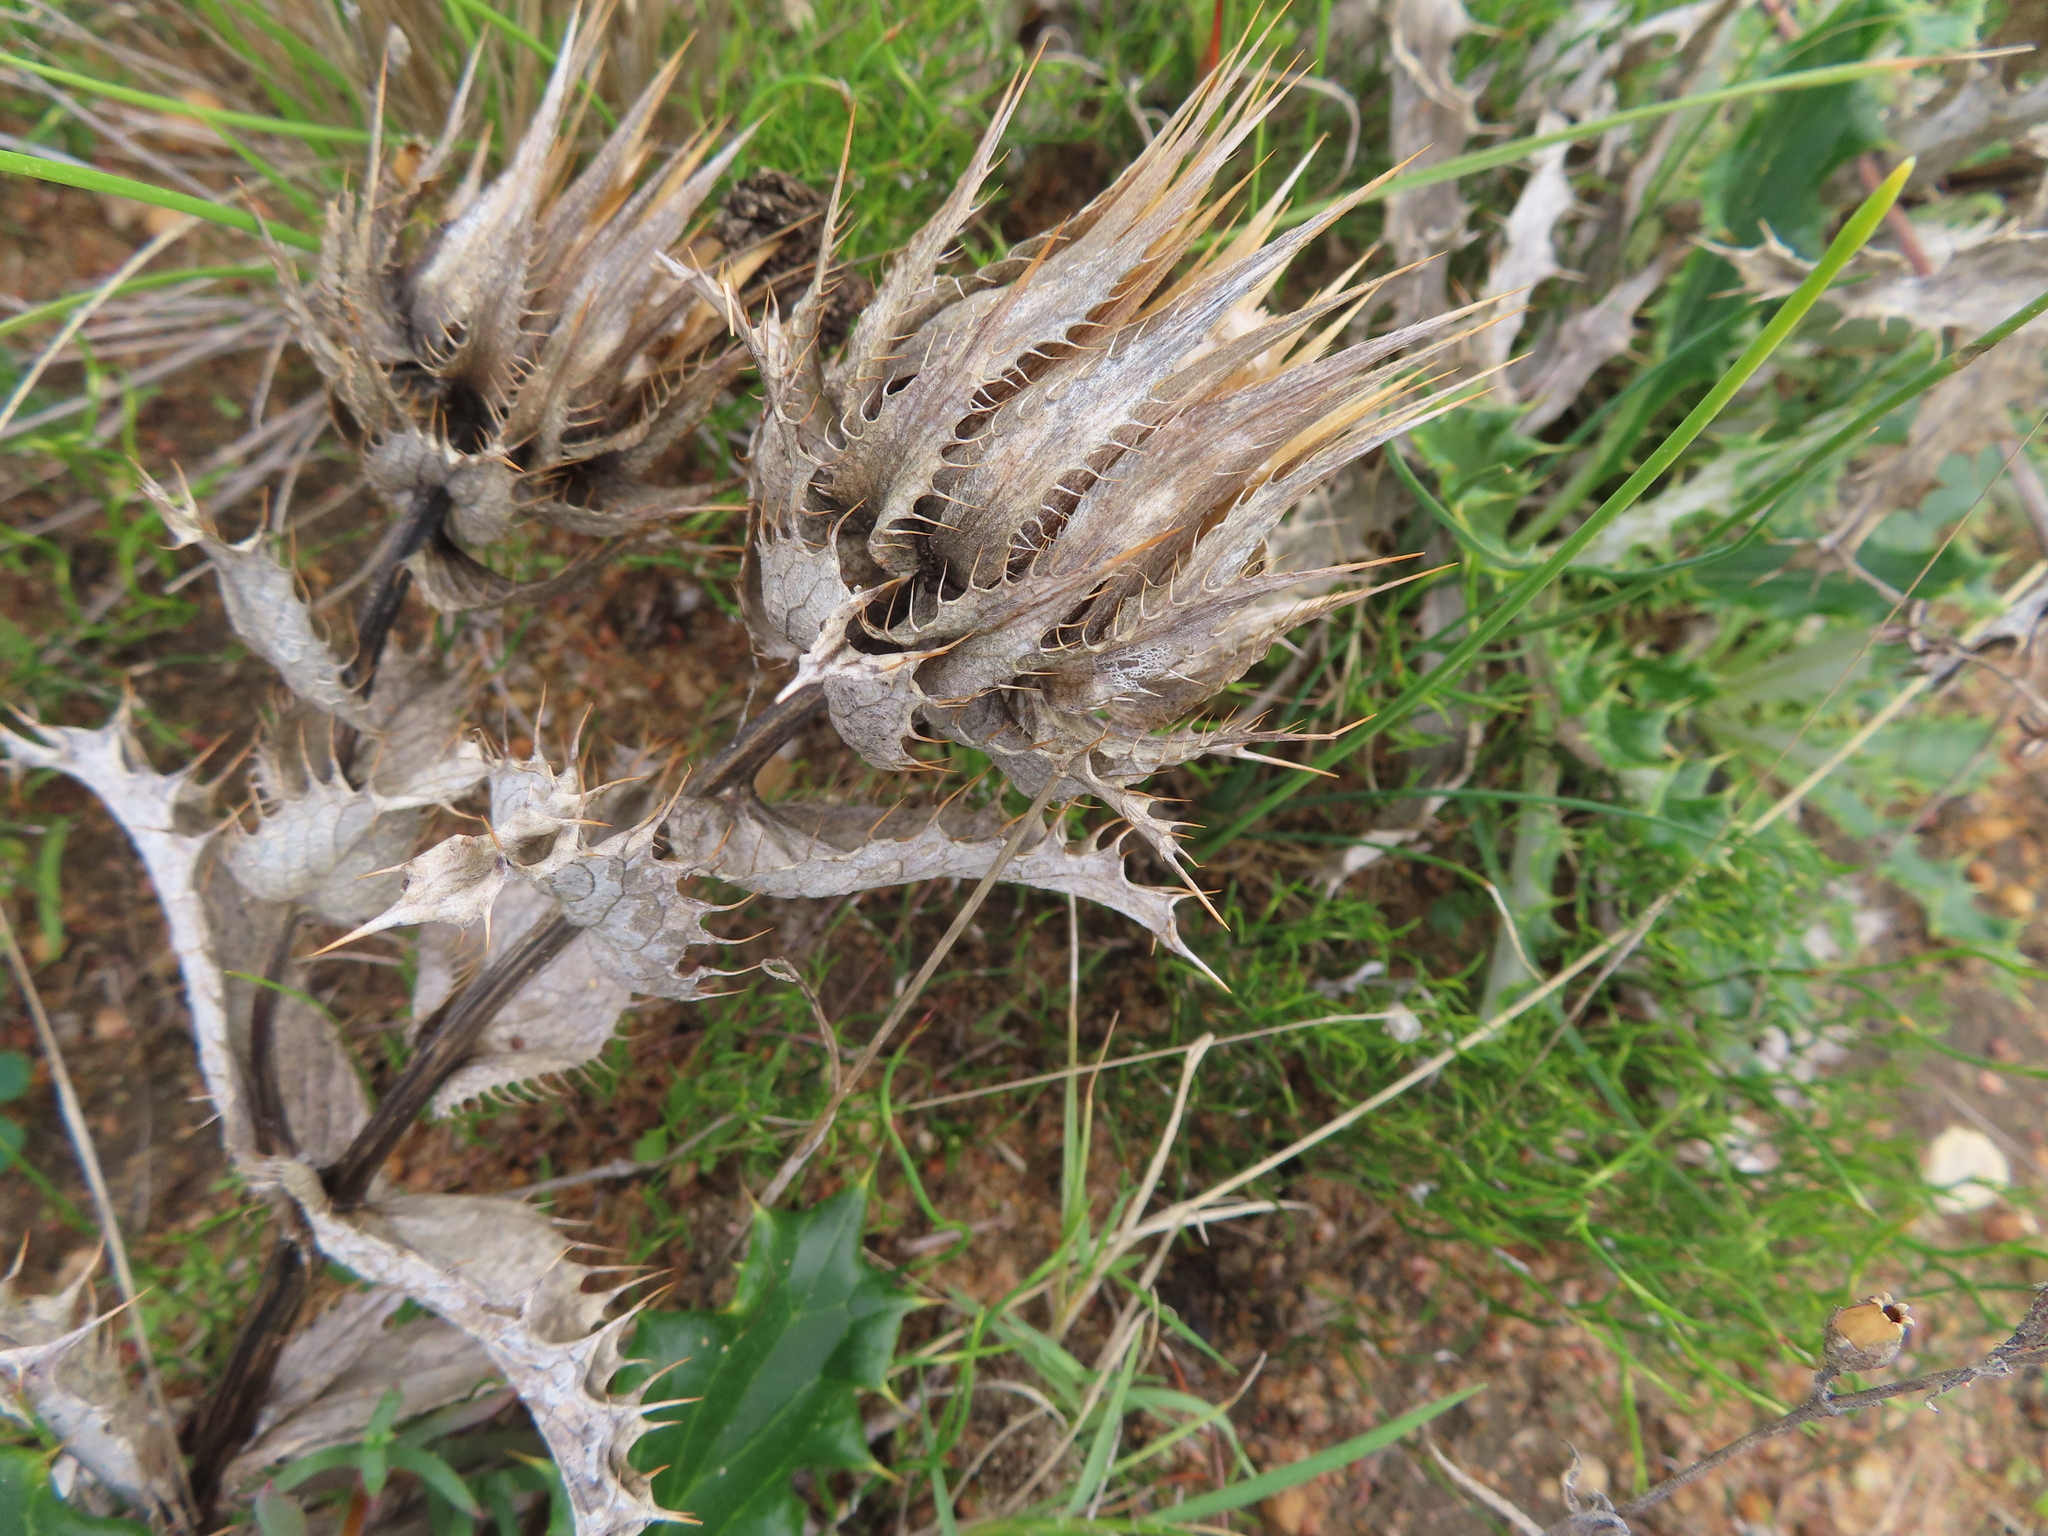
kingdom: Plantae
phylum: Tracheophyta
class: Magnoliopsida
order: Asterales
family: Asteraceae
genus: Berkheya
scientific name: Berkheya armata
